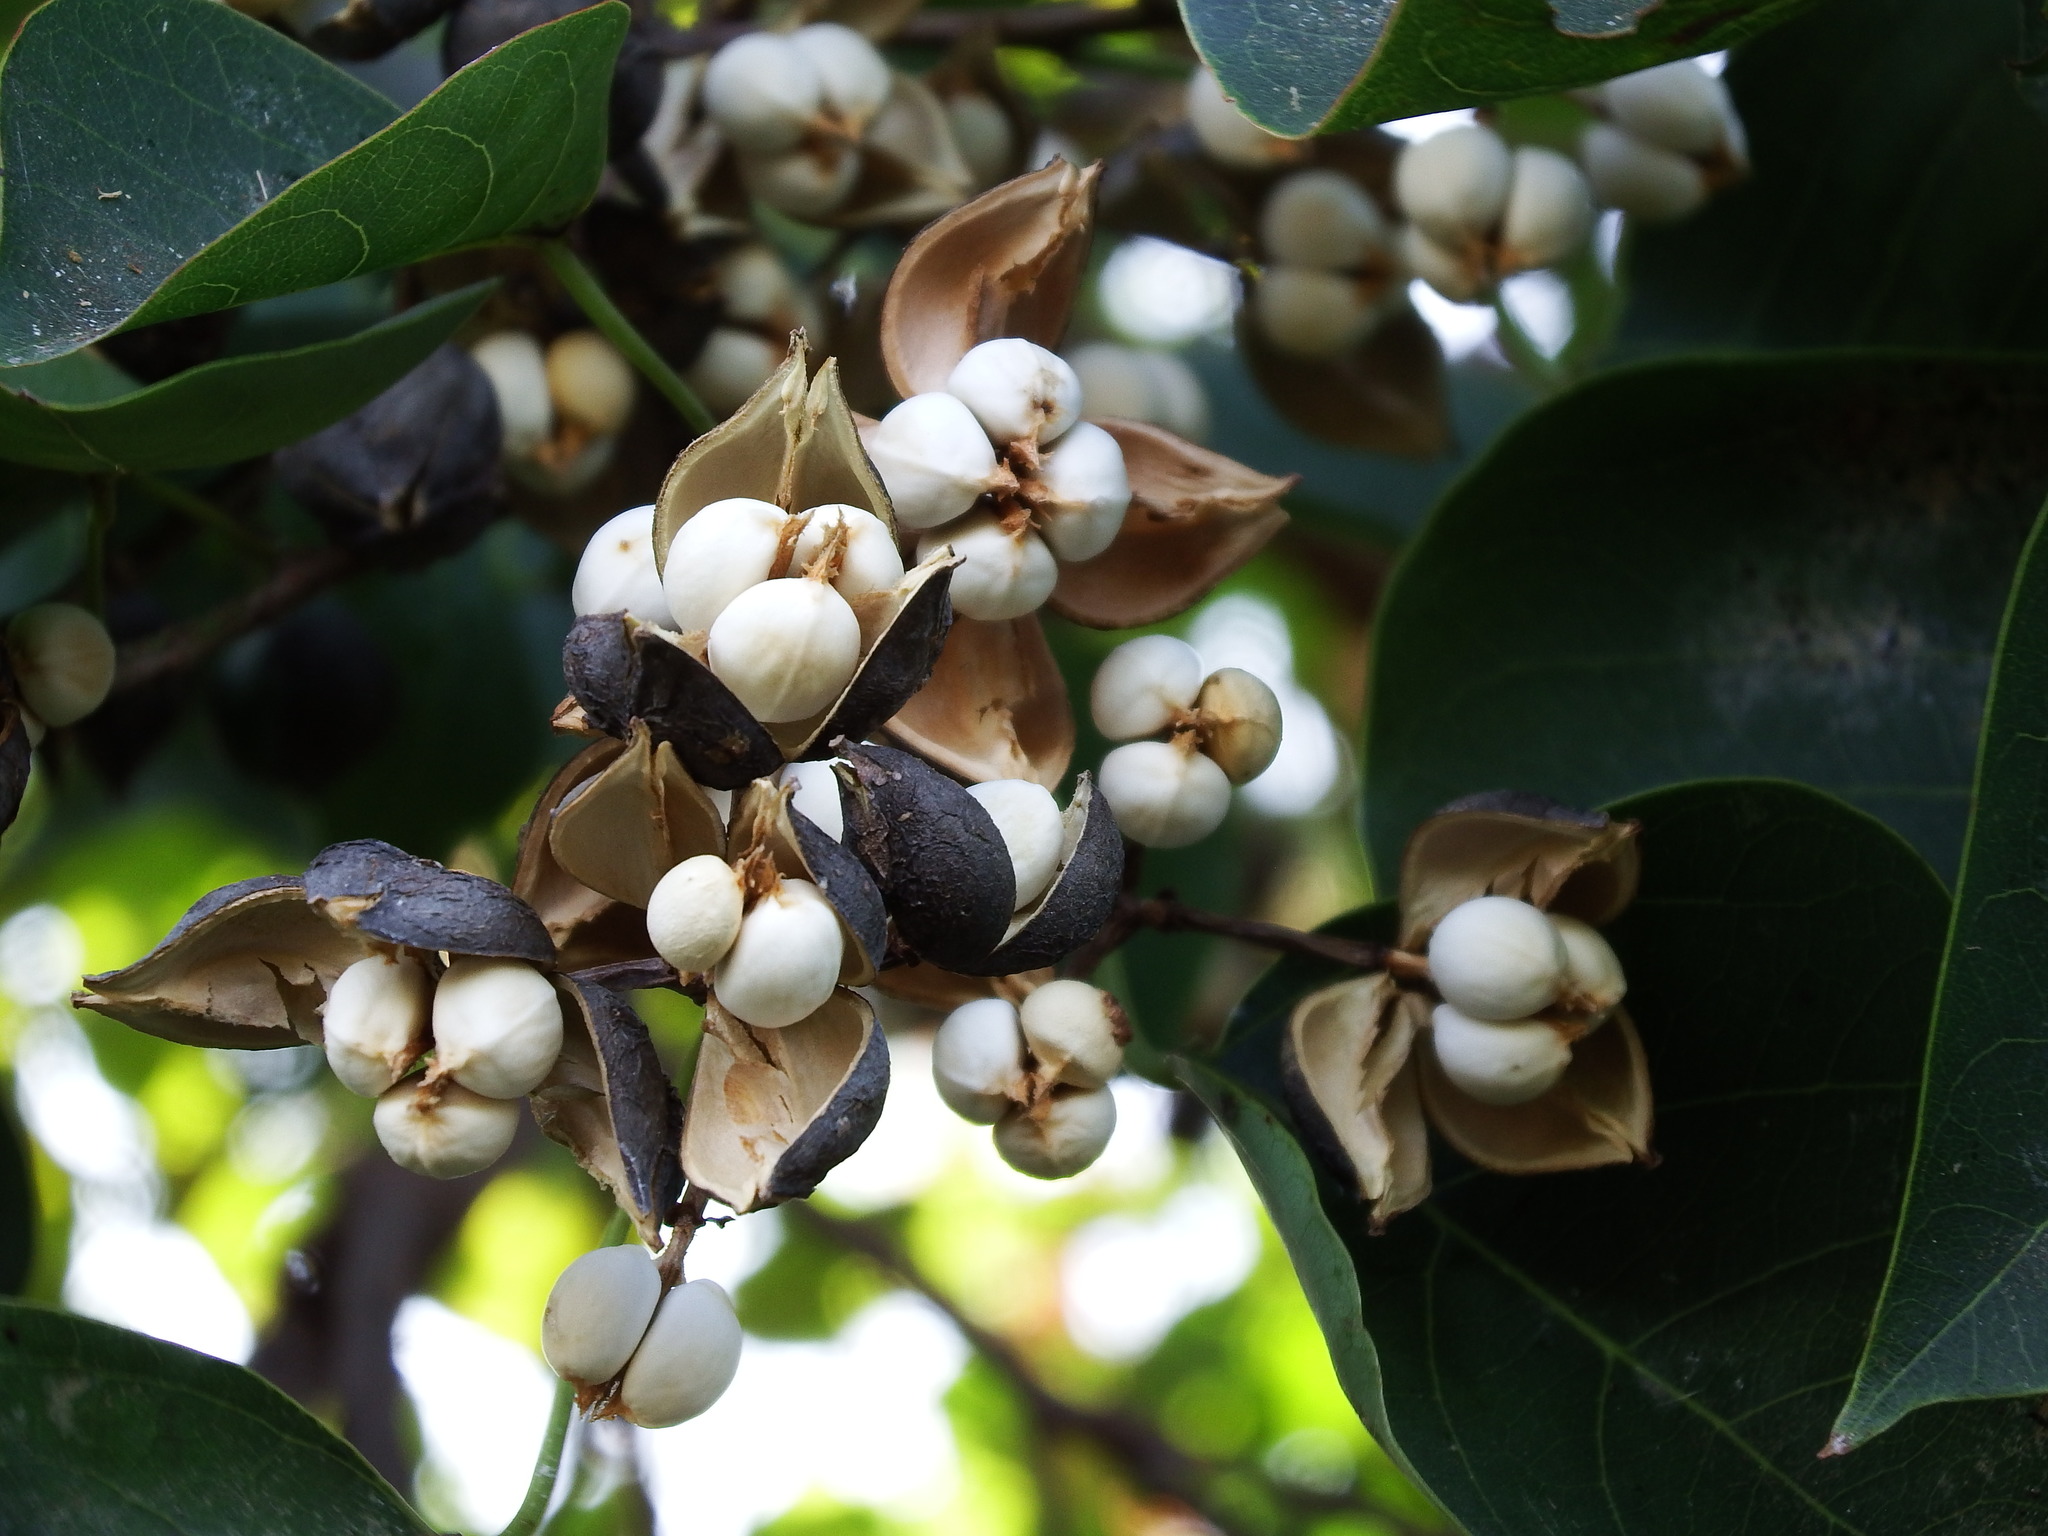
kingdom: Plantae
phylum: Tracheophyta
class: Magnoliopsida
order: Malpighiales
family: Euphorbiaceae
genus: Triadica
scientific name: Triadica sebifera
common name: Chinese tallow
